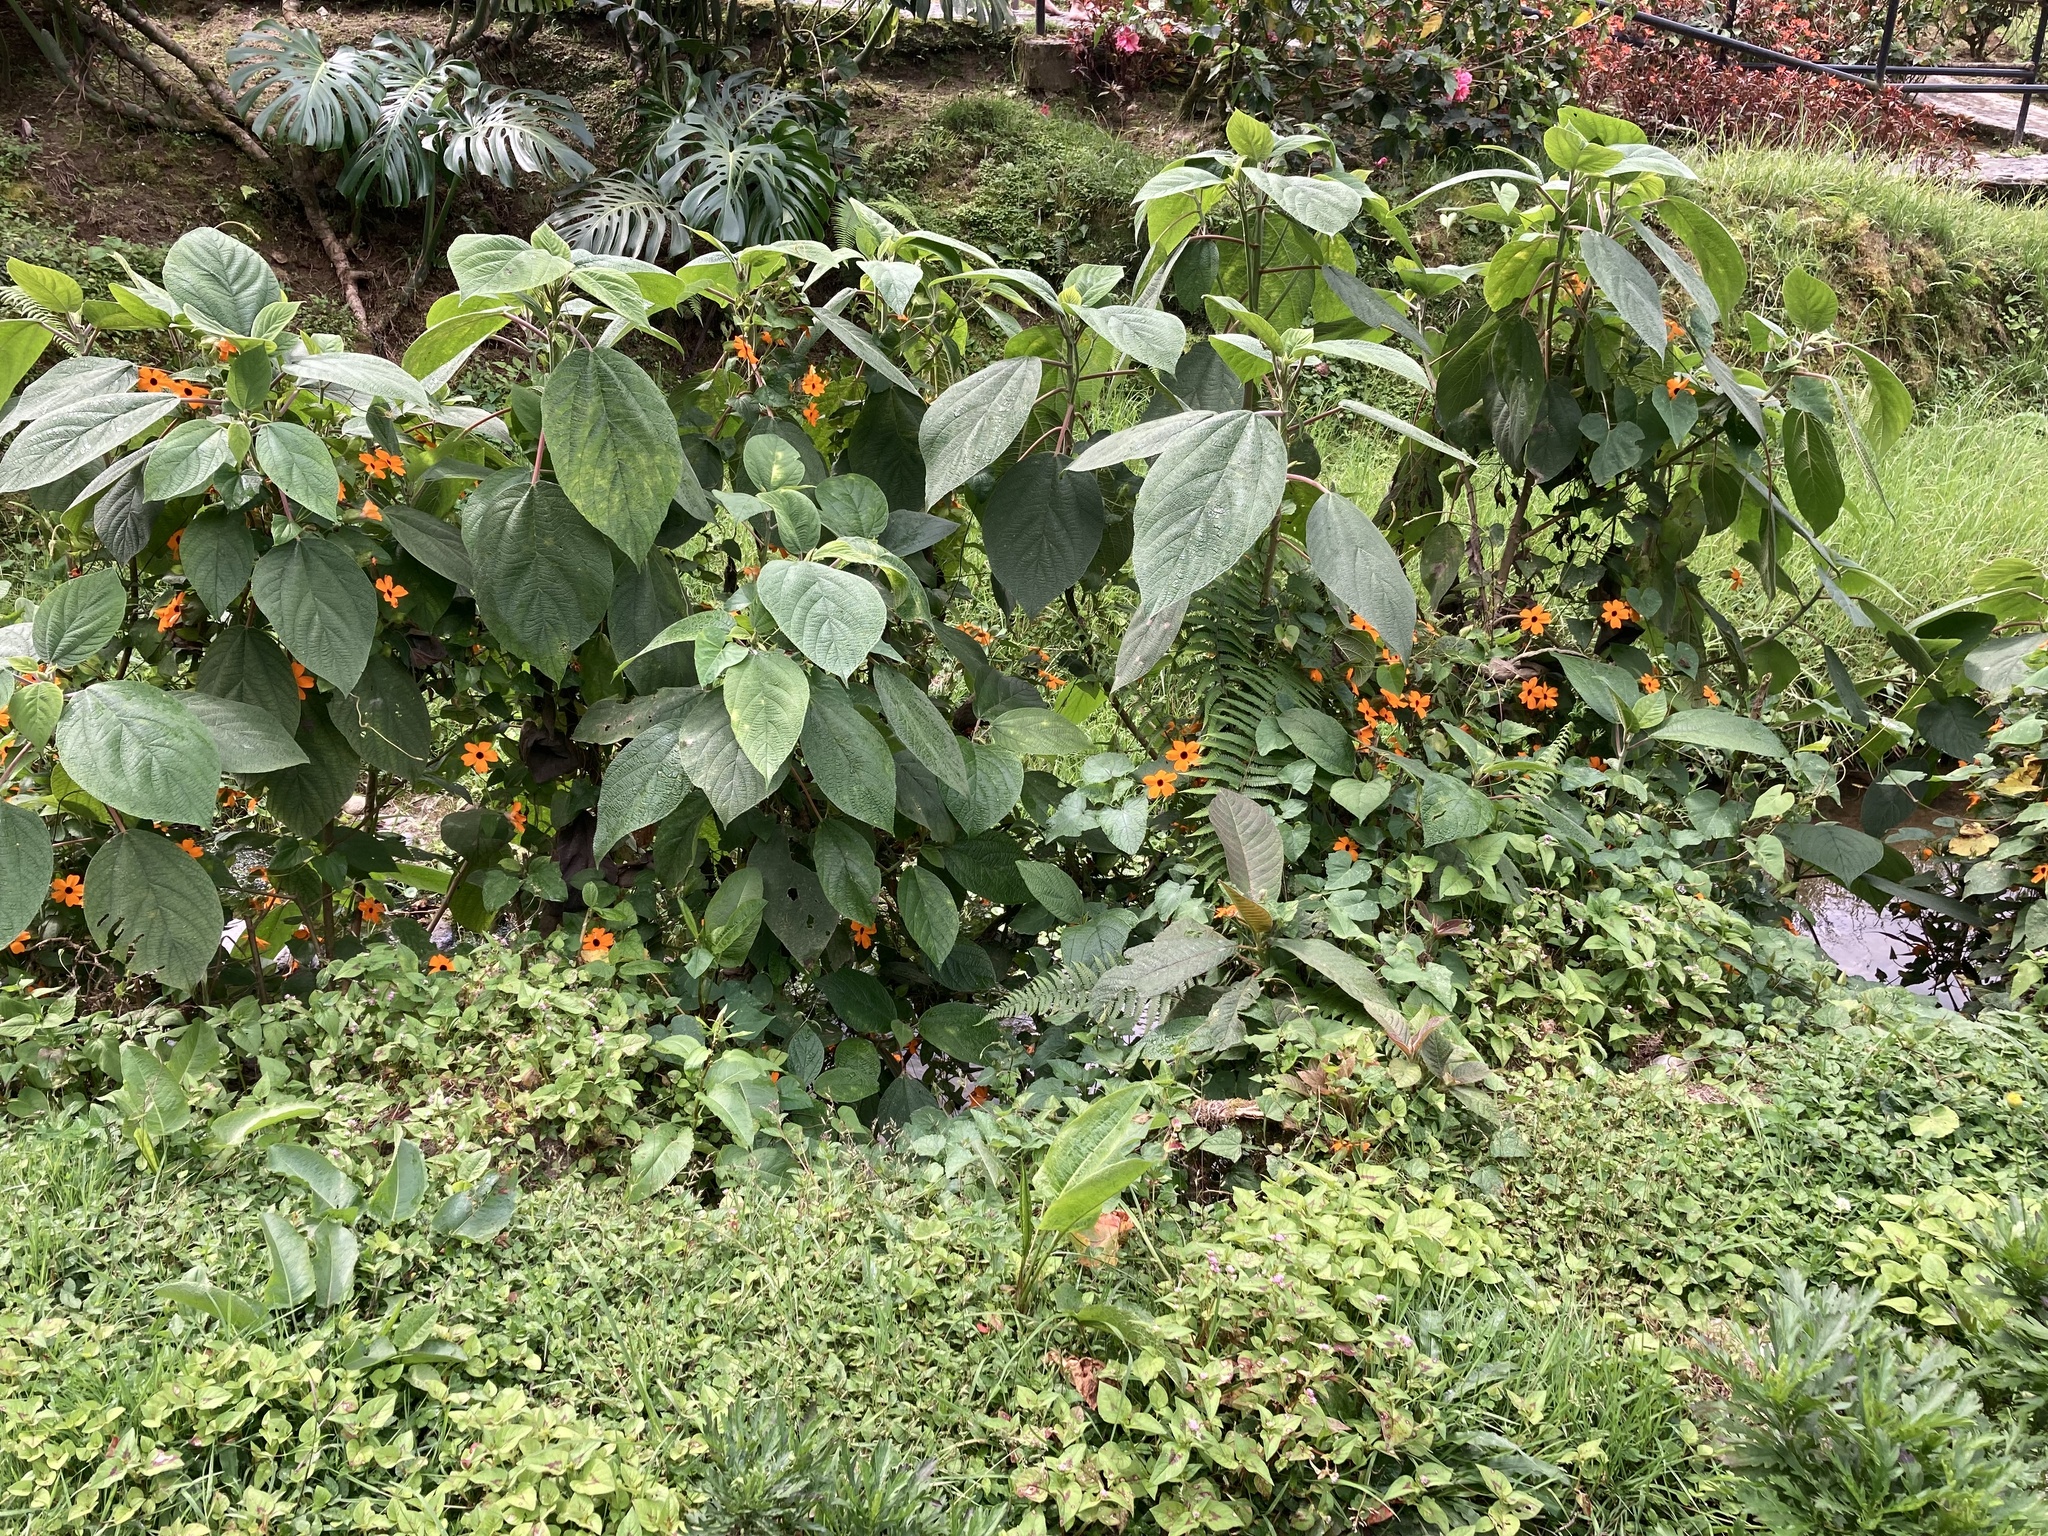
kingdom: Plantae
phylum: Tracheophyta
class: Magnoliopsida
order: Lamiales
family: Acanthaceae
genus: Thunbergia
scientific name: Thunbergia alata
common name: Blackeyed susan vine
